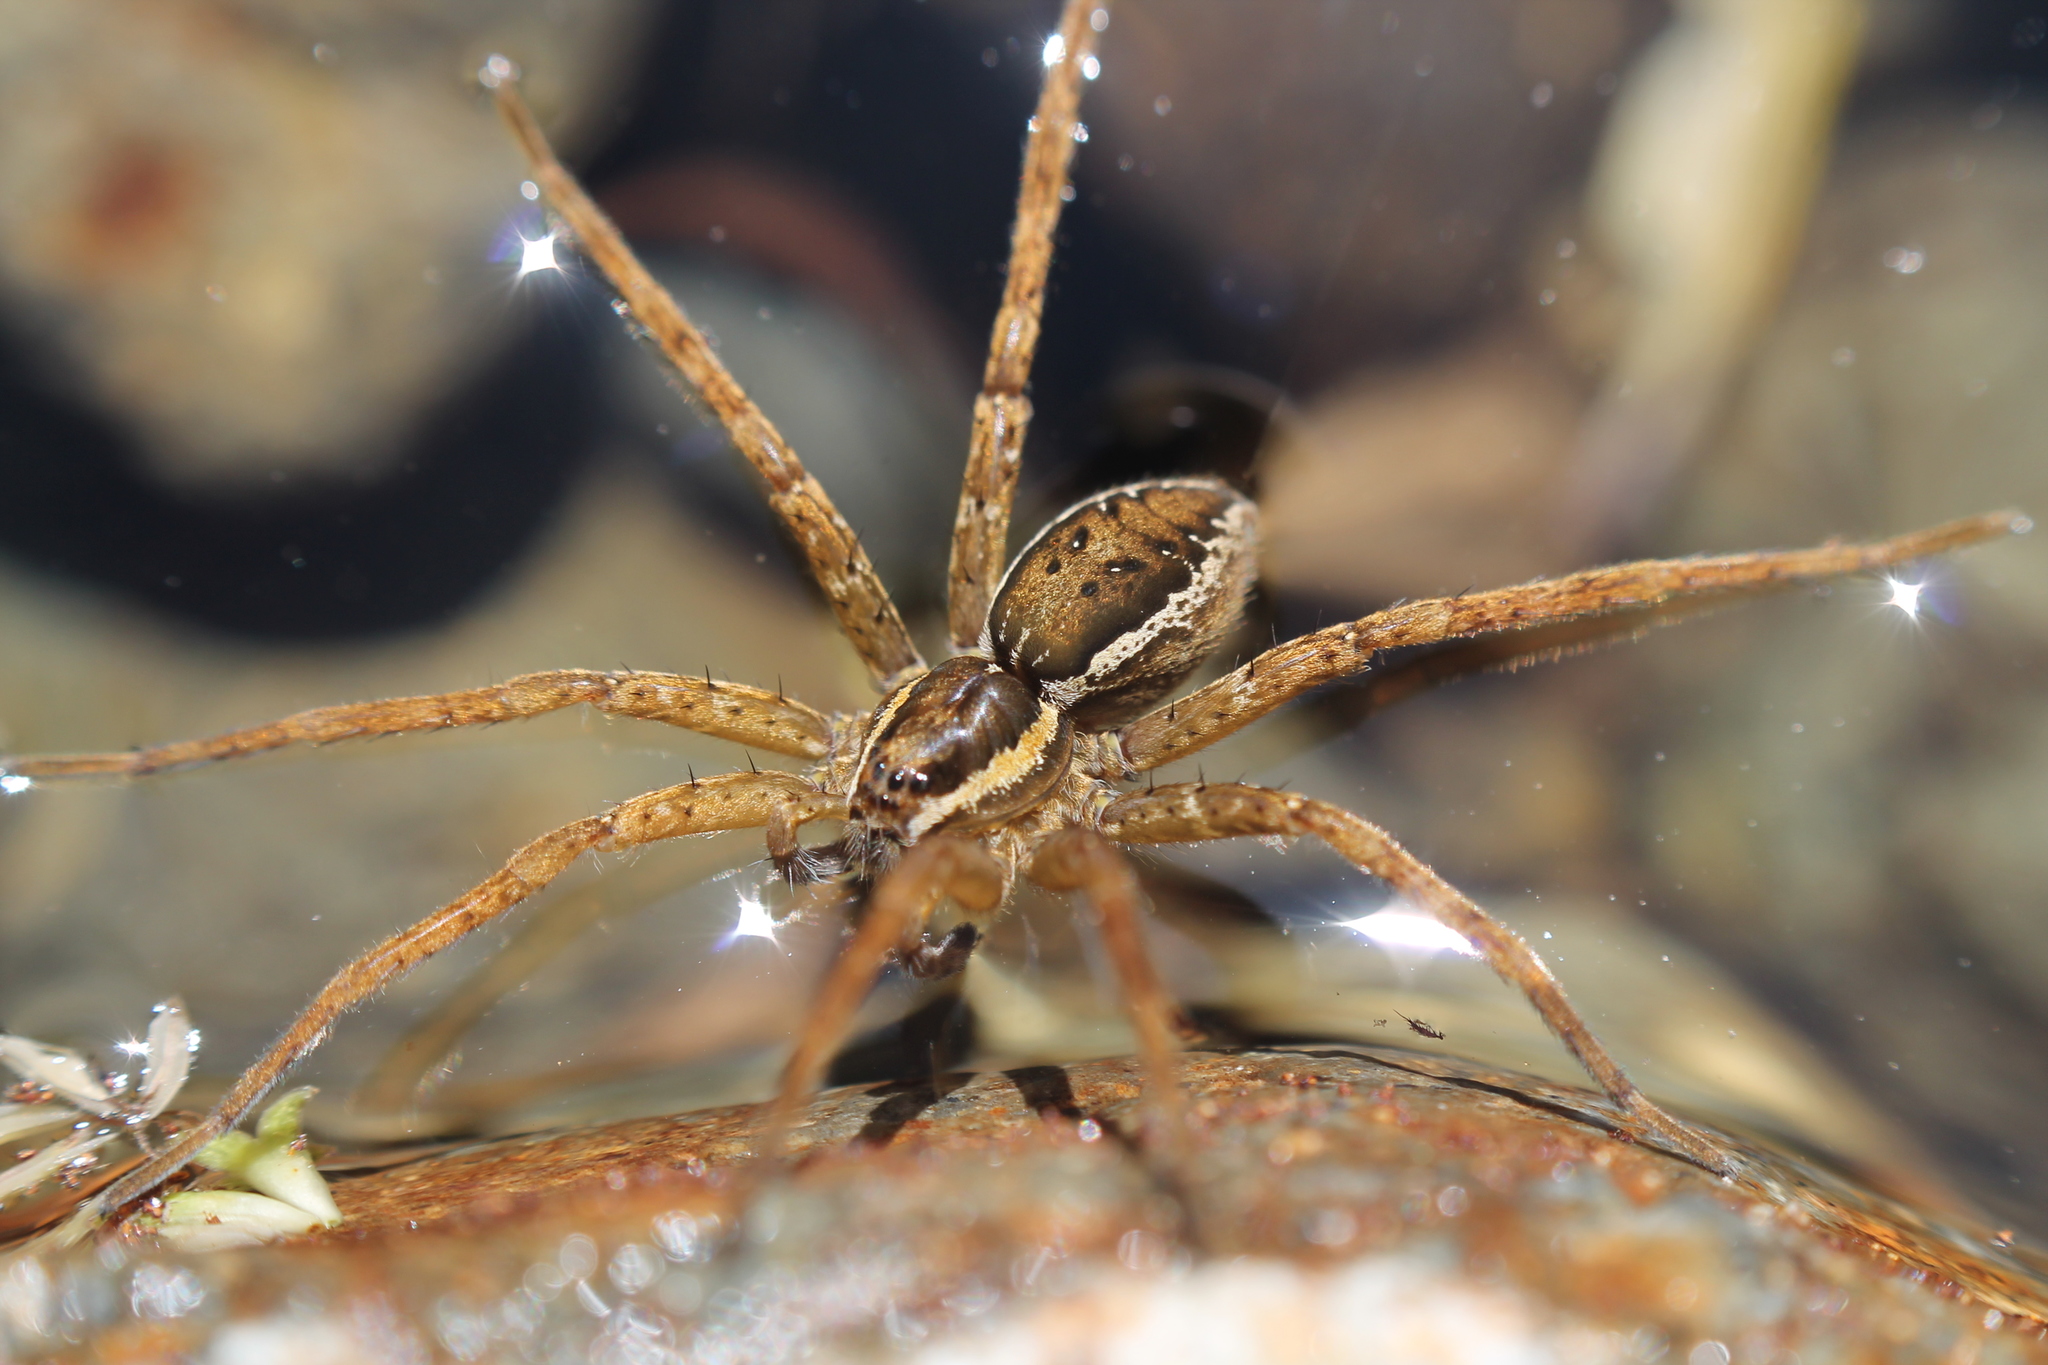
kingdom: Animalia
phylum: Arthropoda
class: Arachnida
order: Araneae
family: Pisauridae
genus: Dolomedes
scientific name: Dolomedes dondalei
